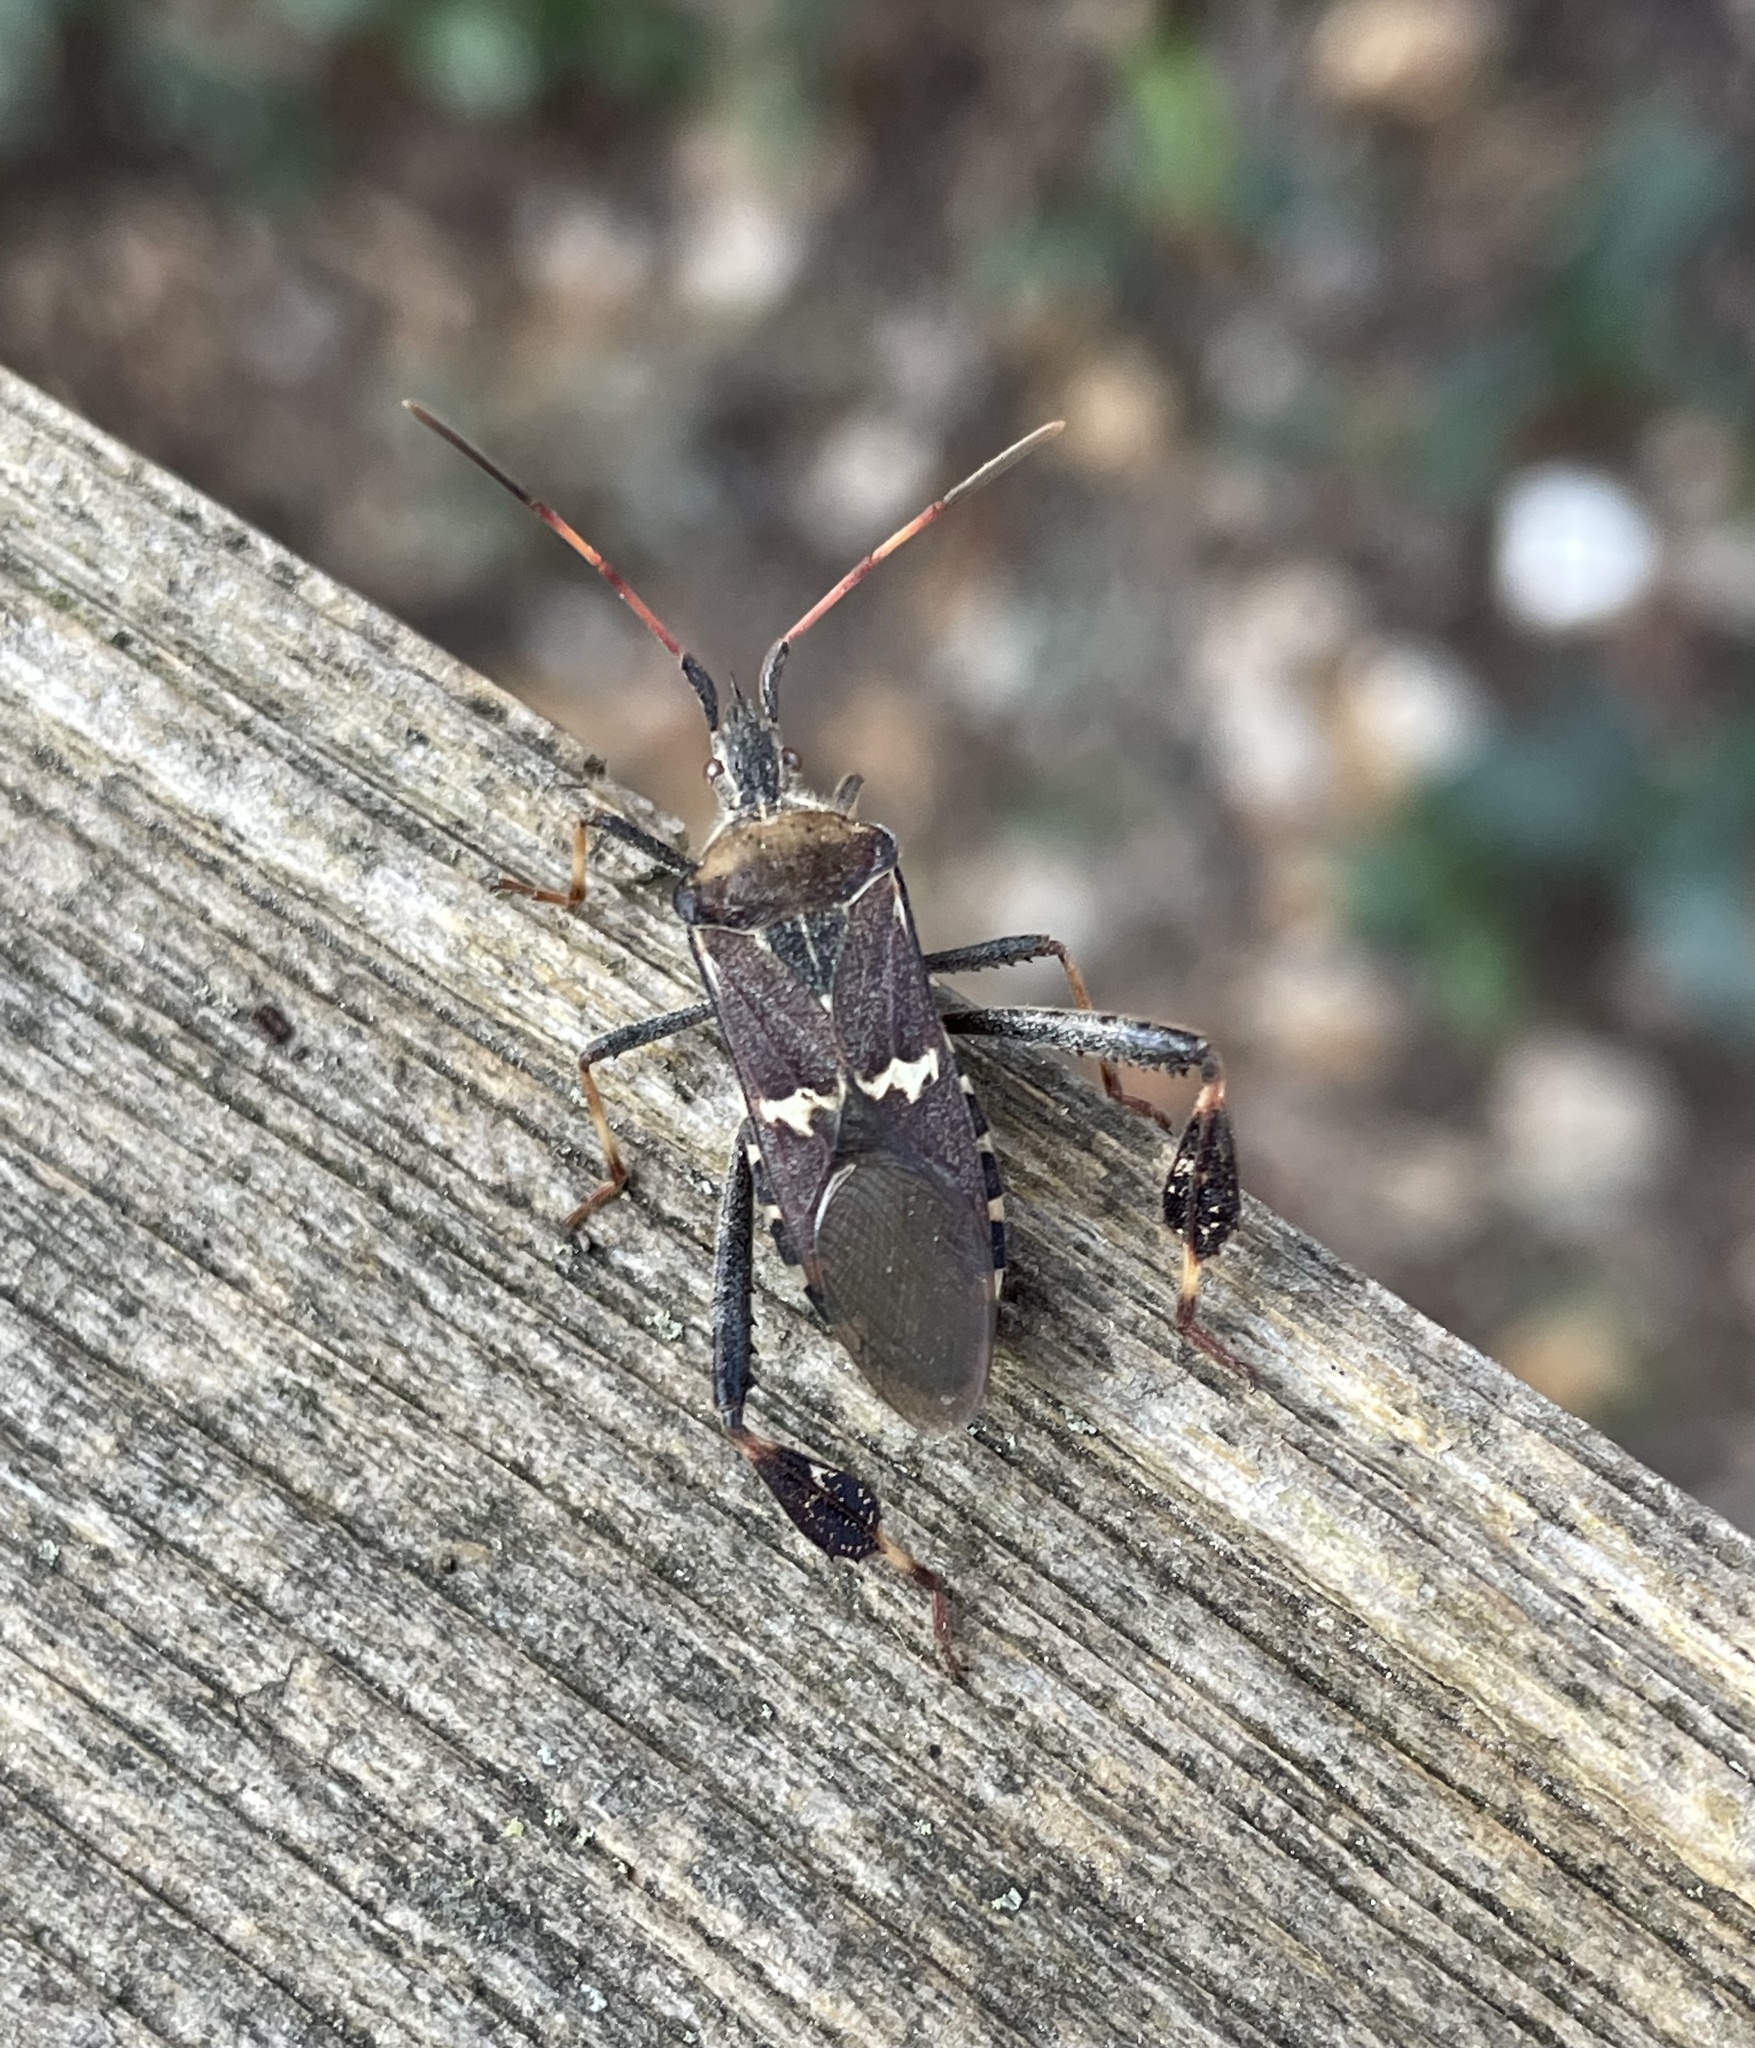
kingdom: Animalia
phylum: Arthropoda
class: Insecta
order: Hemiptera
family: Coreidae
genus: Leptoglossus
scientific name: Leptoglossus clypealis
